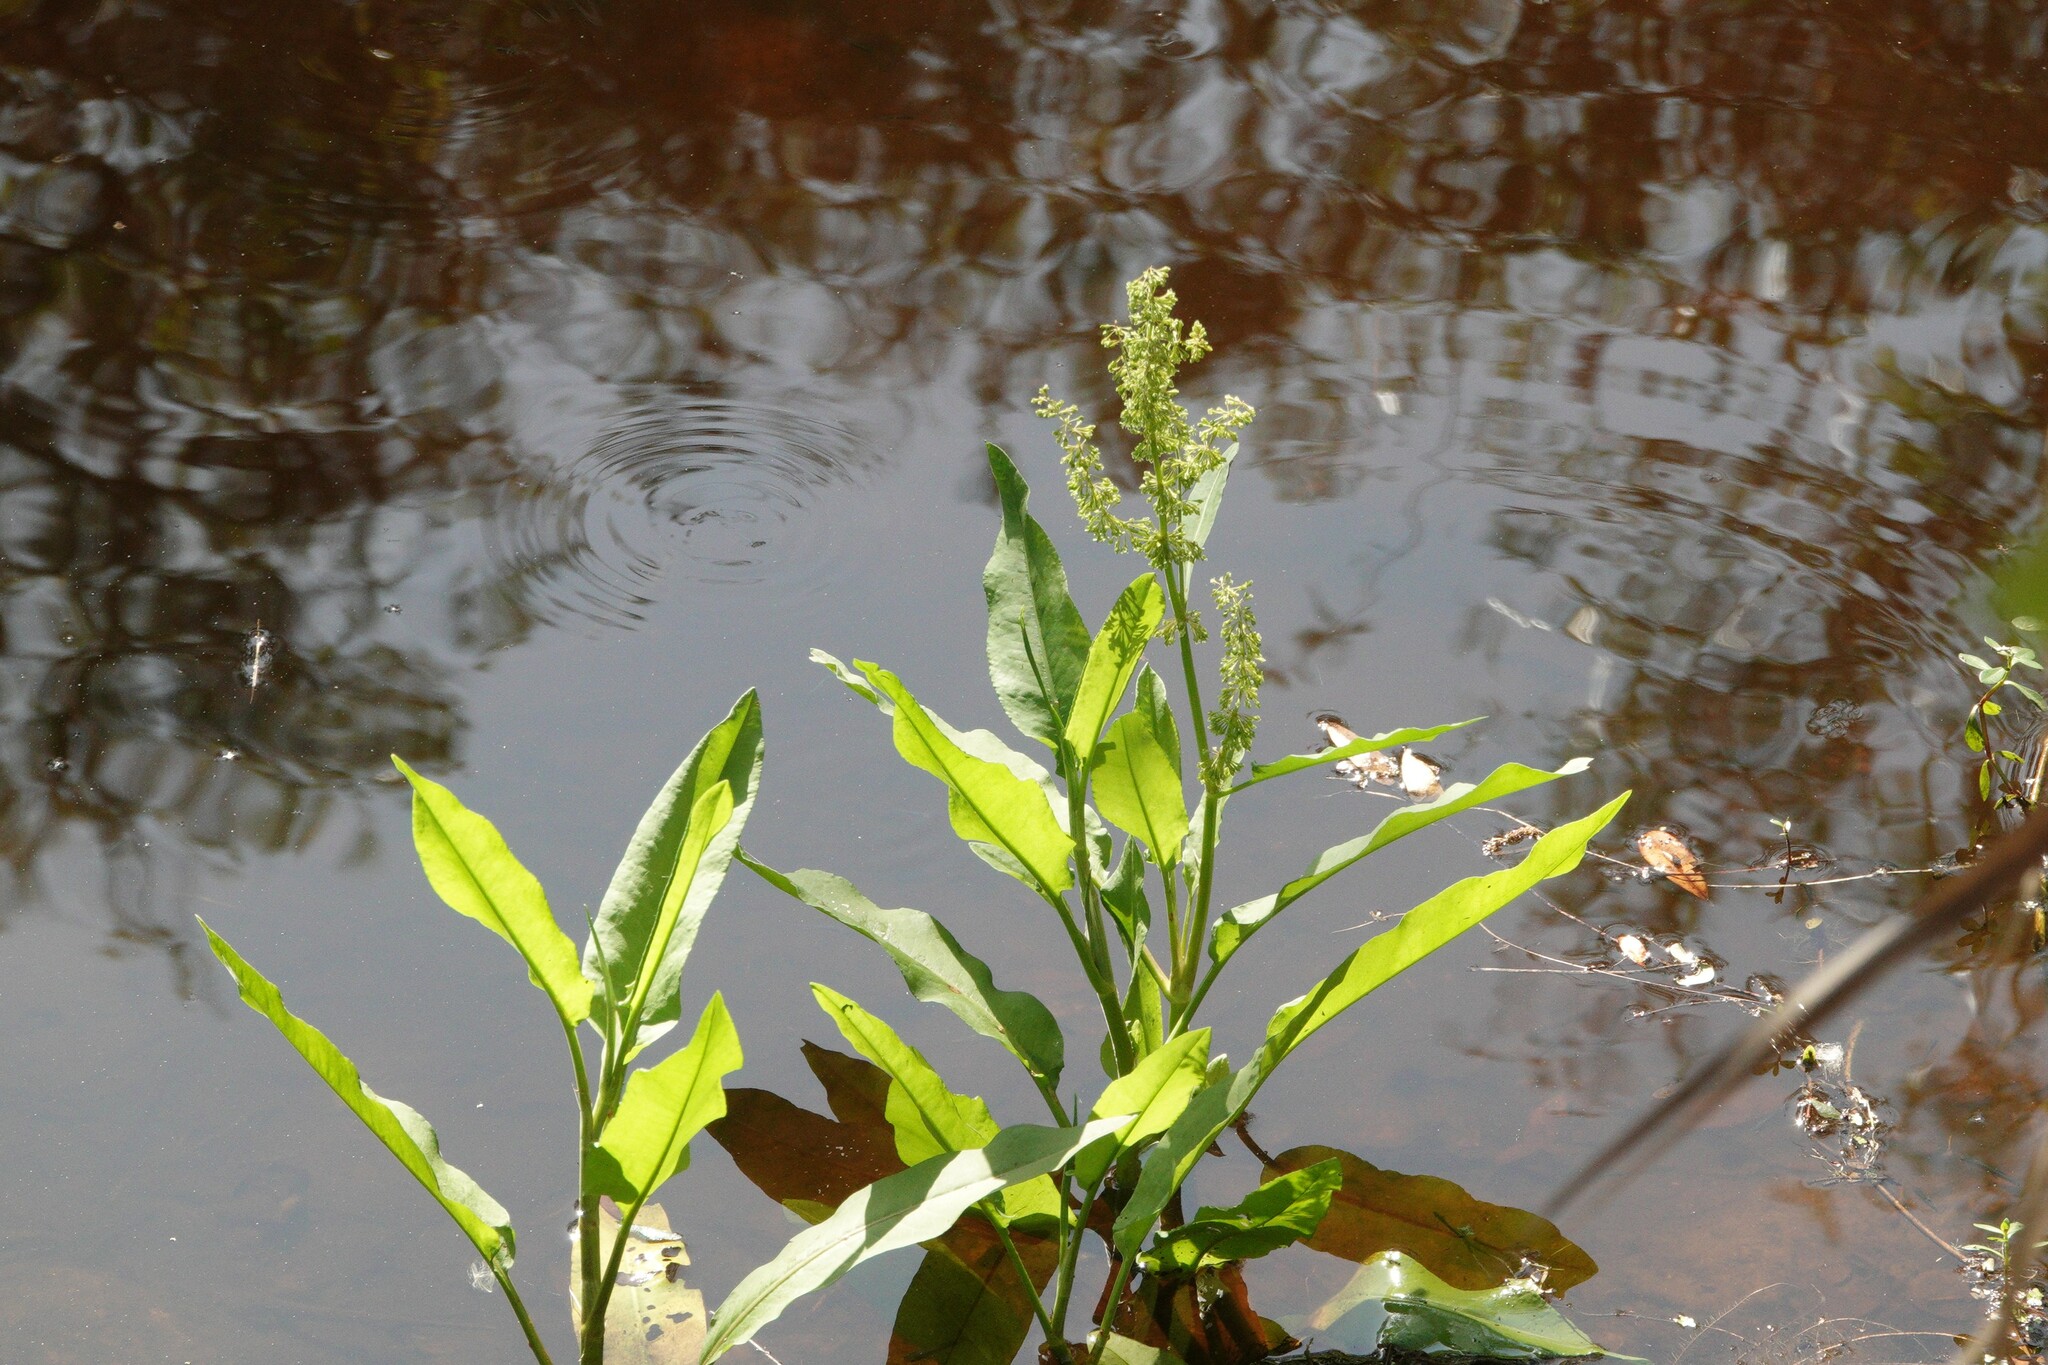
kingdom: Plantae
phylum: Tracheophyta
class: Magnoliopsida
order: Caryophyllales
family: Polygonaceae
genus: Rumex
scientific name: Rumex verticillatus
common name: Swamp dock
